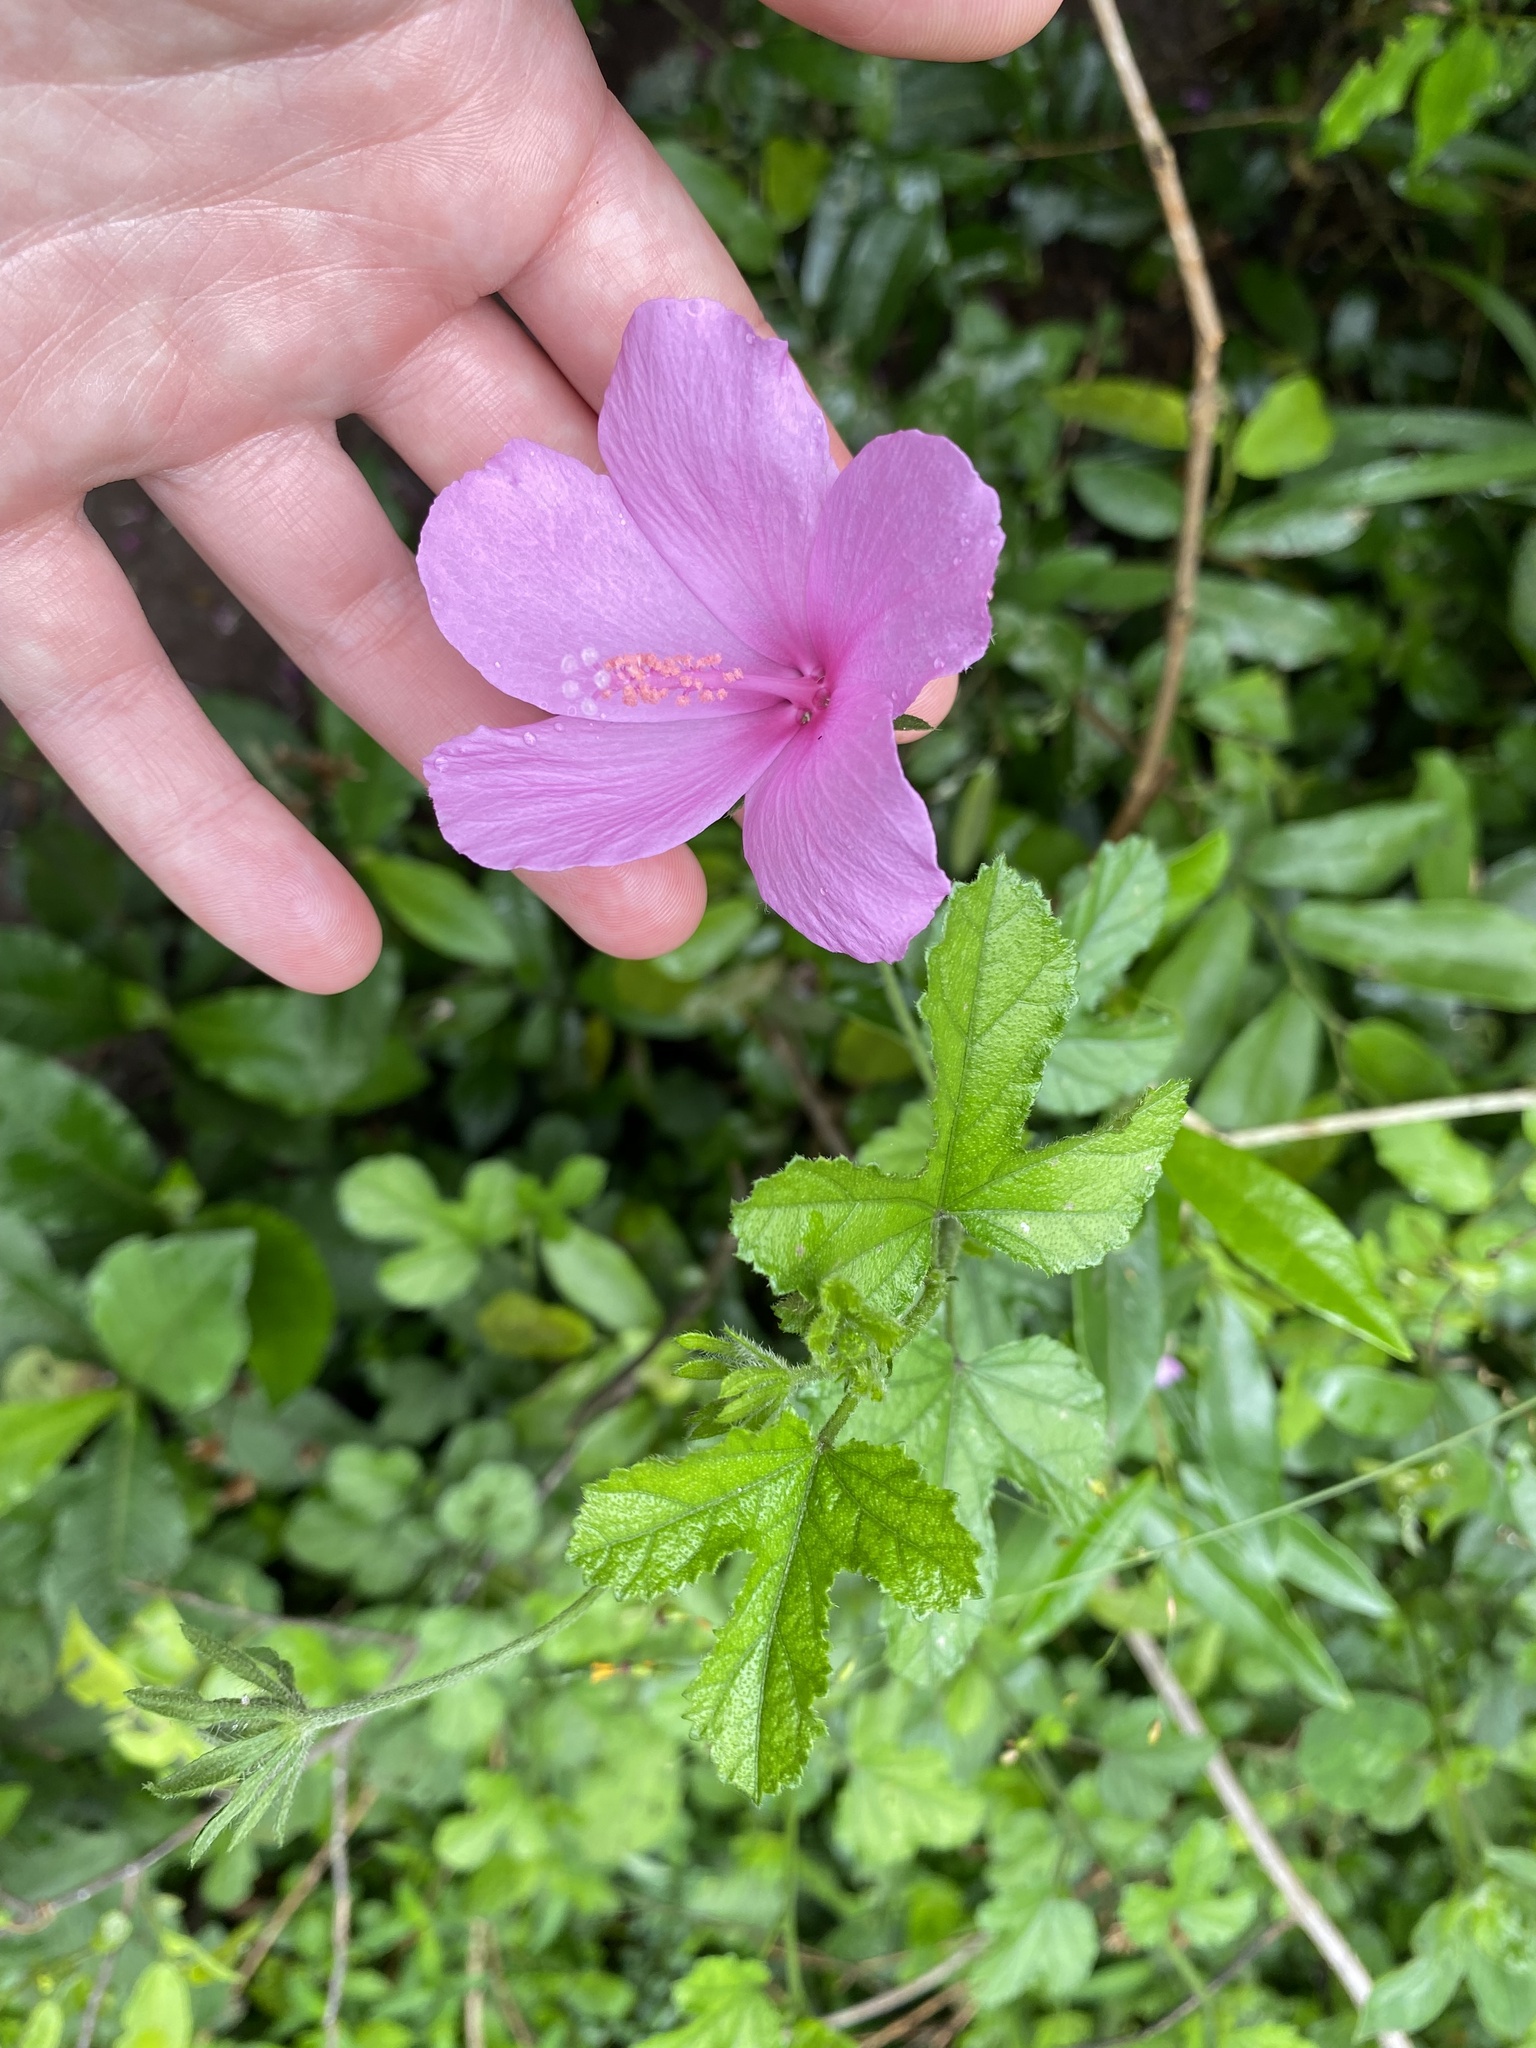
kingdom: Plantae
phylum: Tracheophyta
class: Magnoliopsida
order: Malvales
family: Malvaceae
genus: Hibiscus
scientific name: Hibiscus pedunculatus
